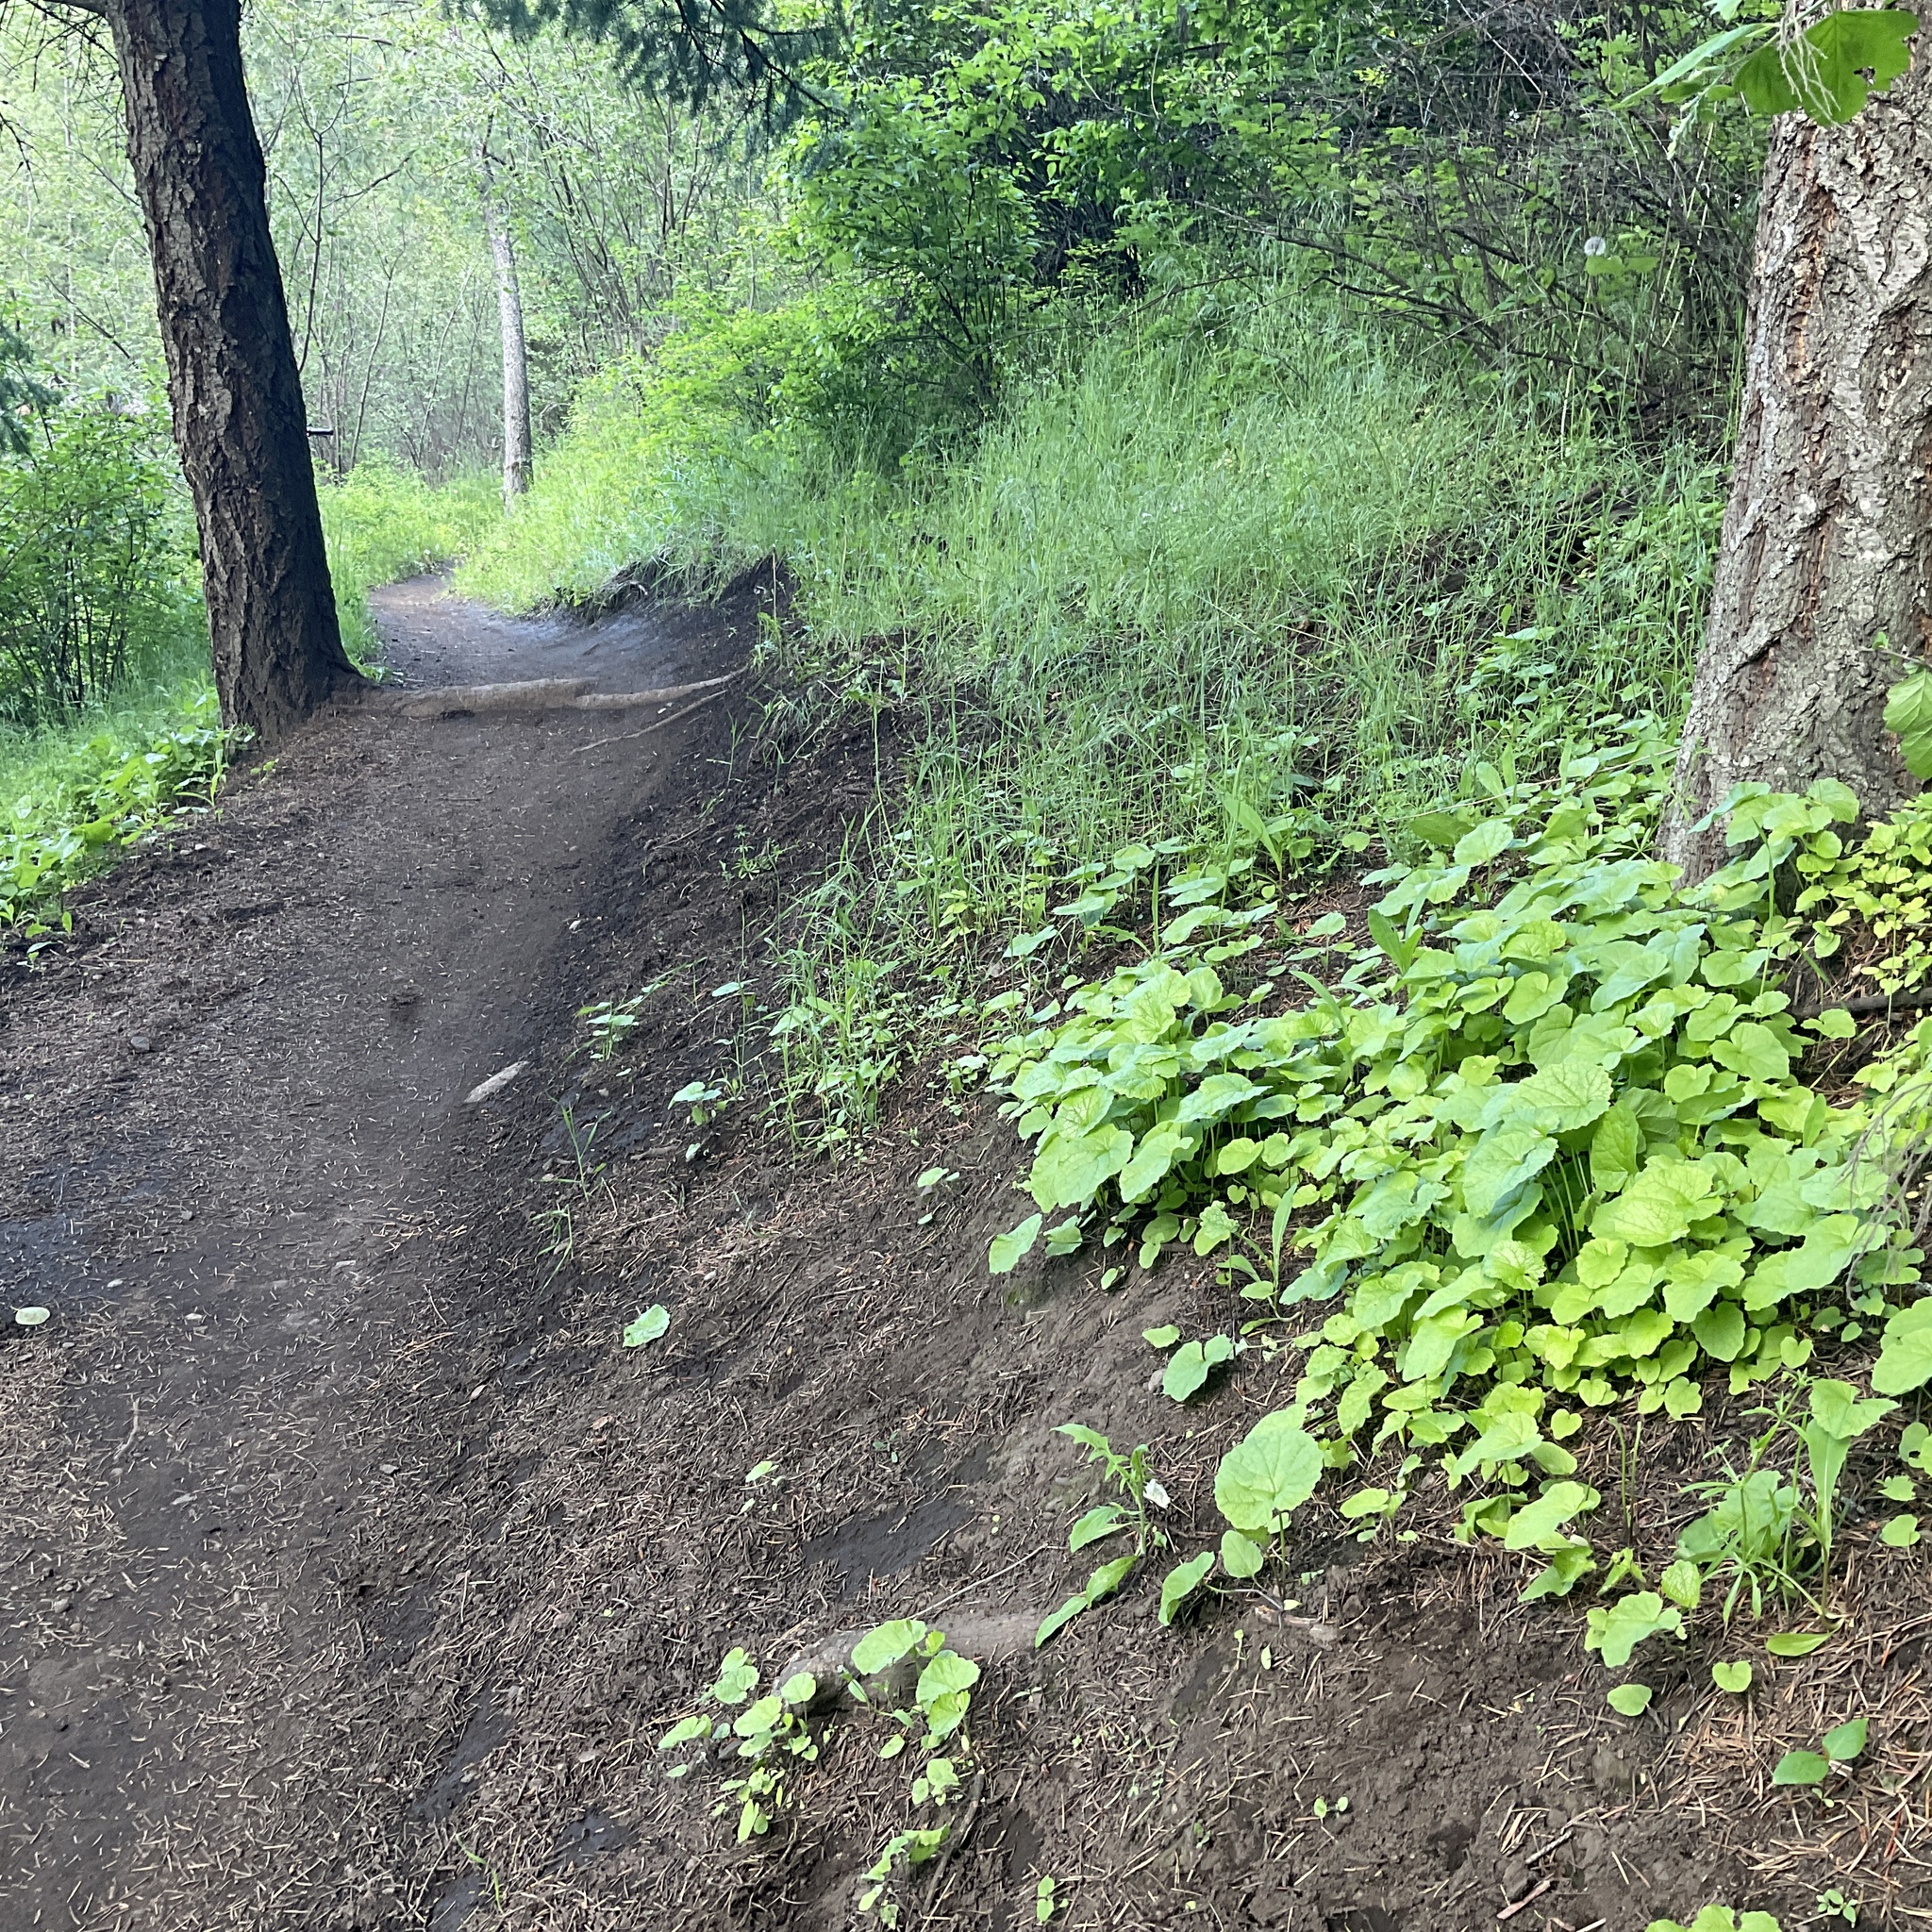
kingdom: Plantae
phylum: Tracheophyta
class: Magnoliopsida
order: Brassicales
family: Brassicaceae
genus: Alliaria
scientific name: Alliaria petiolata
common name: Garlic mustard
